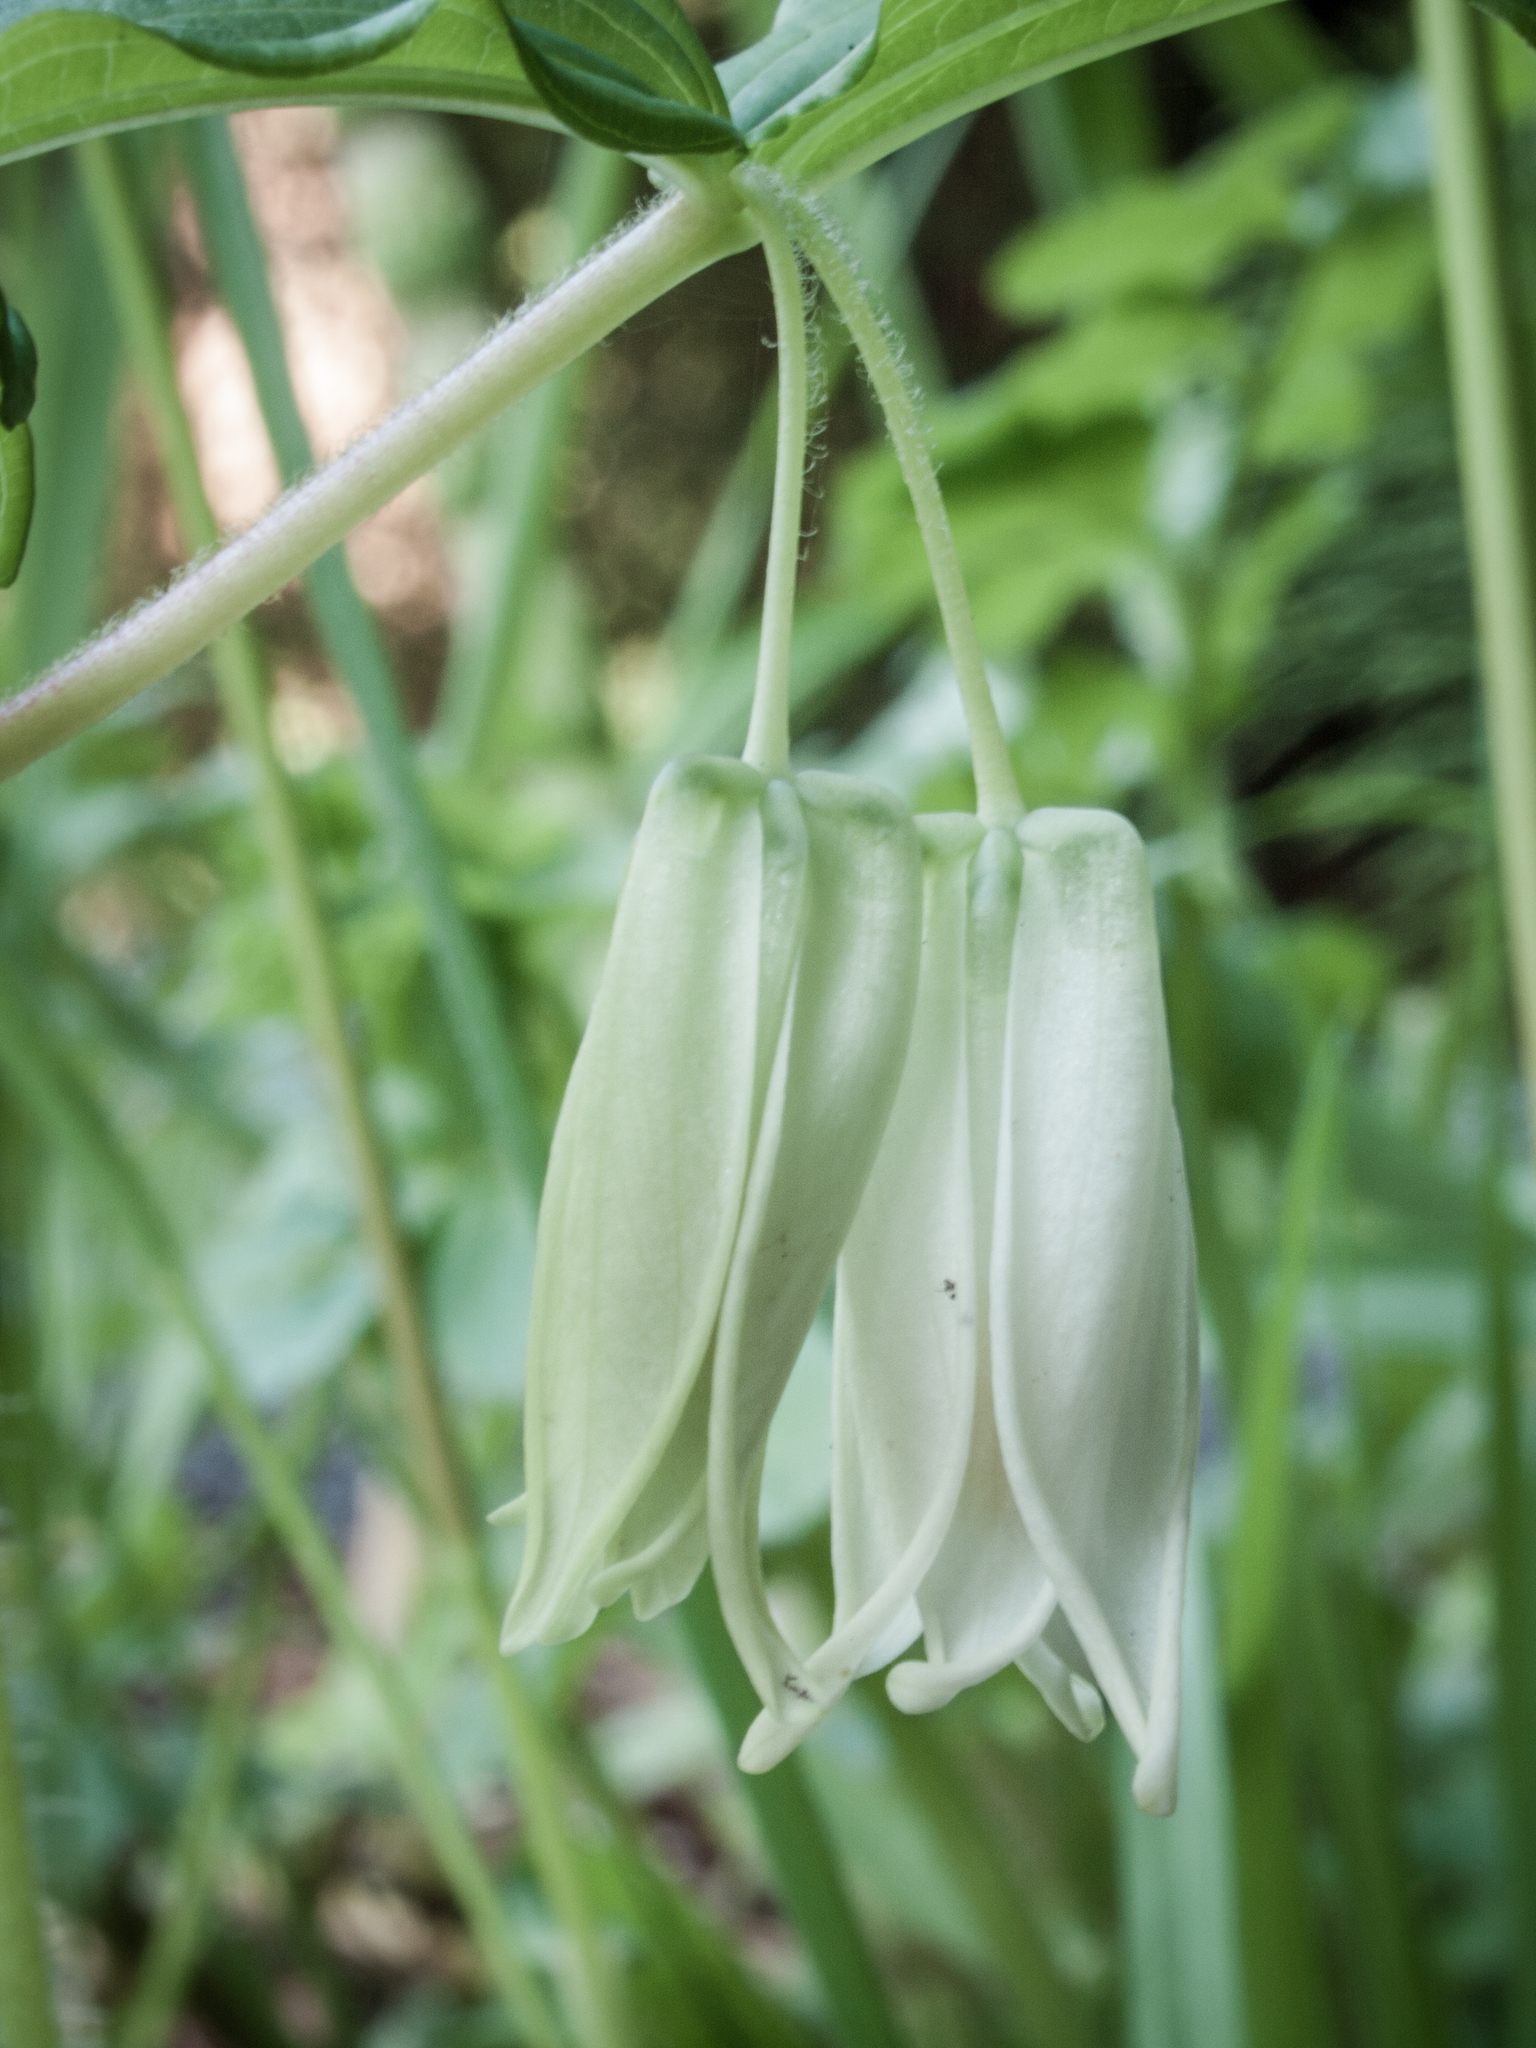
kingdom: Plantae
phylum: Tracheophyta
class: Liliopsida
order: Liliales
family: Liliaceae
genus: Prosartes
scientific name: Prosartes smithii
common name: Fairy-lantern
